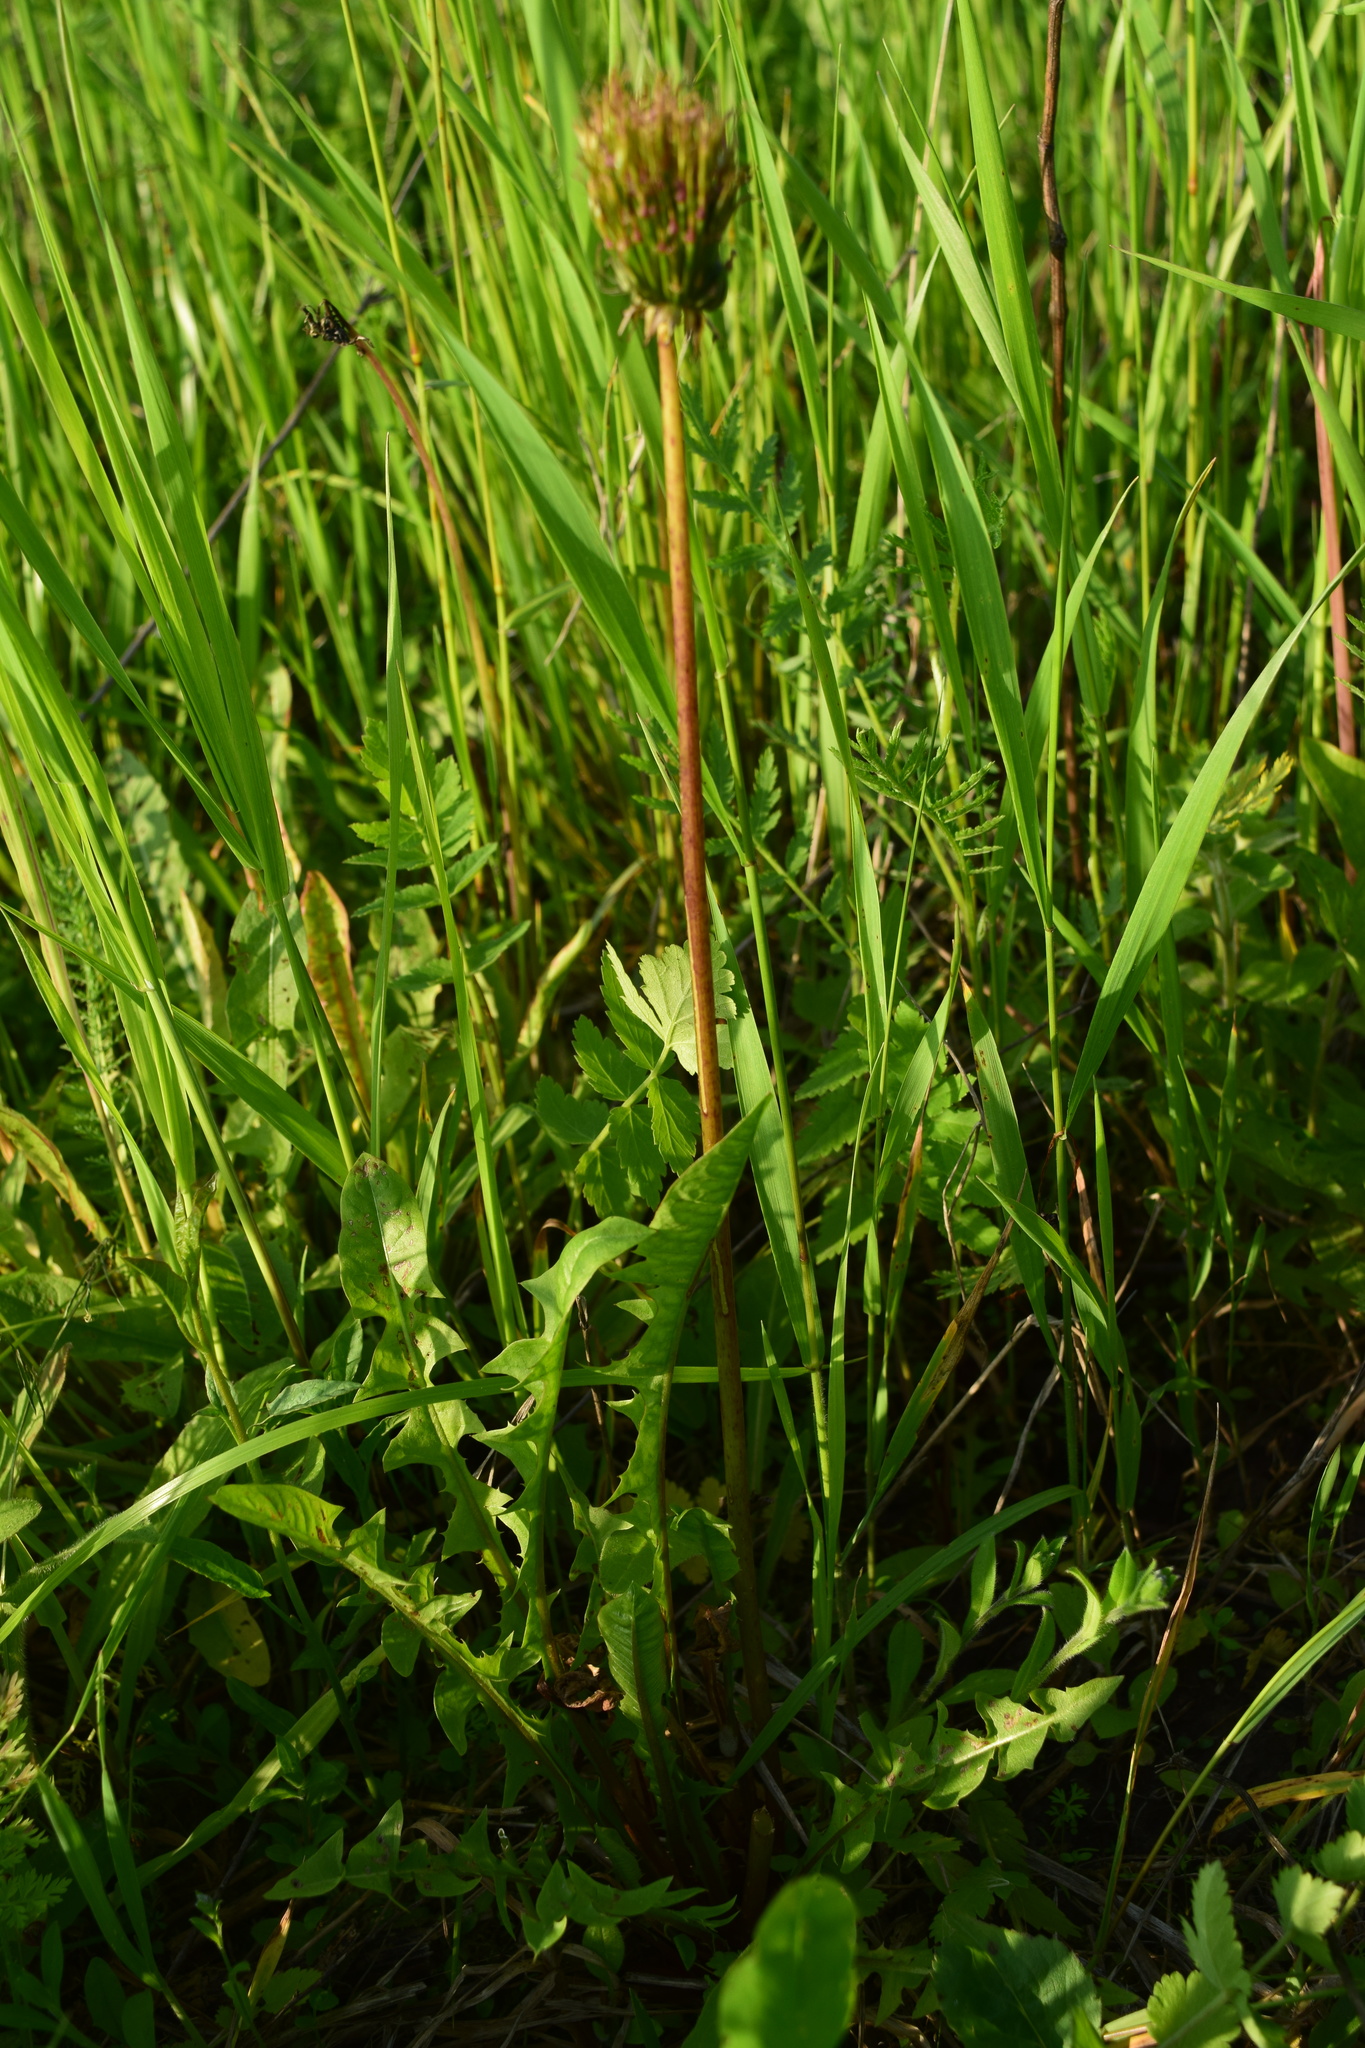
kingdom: Plantae
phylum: Tracheophyta
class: Magnoliopsida
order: Asterales
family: Asteraceae
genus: Taraxacum
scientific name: Taraxacum officinale
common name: Common dandelion
